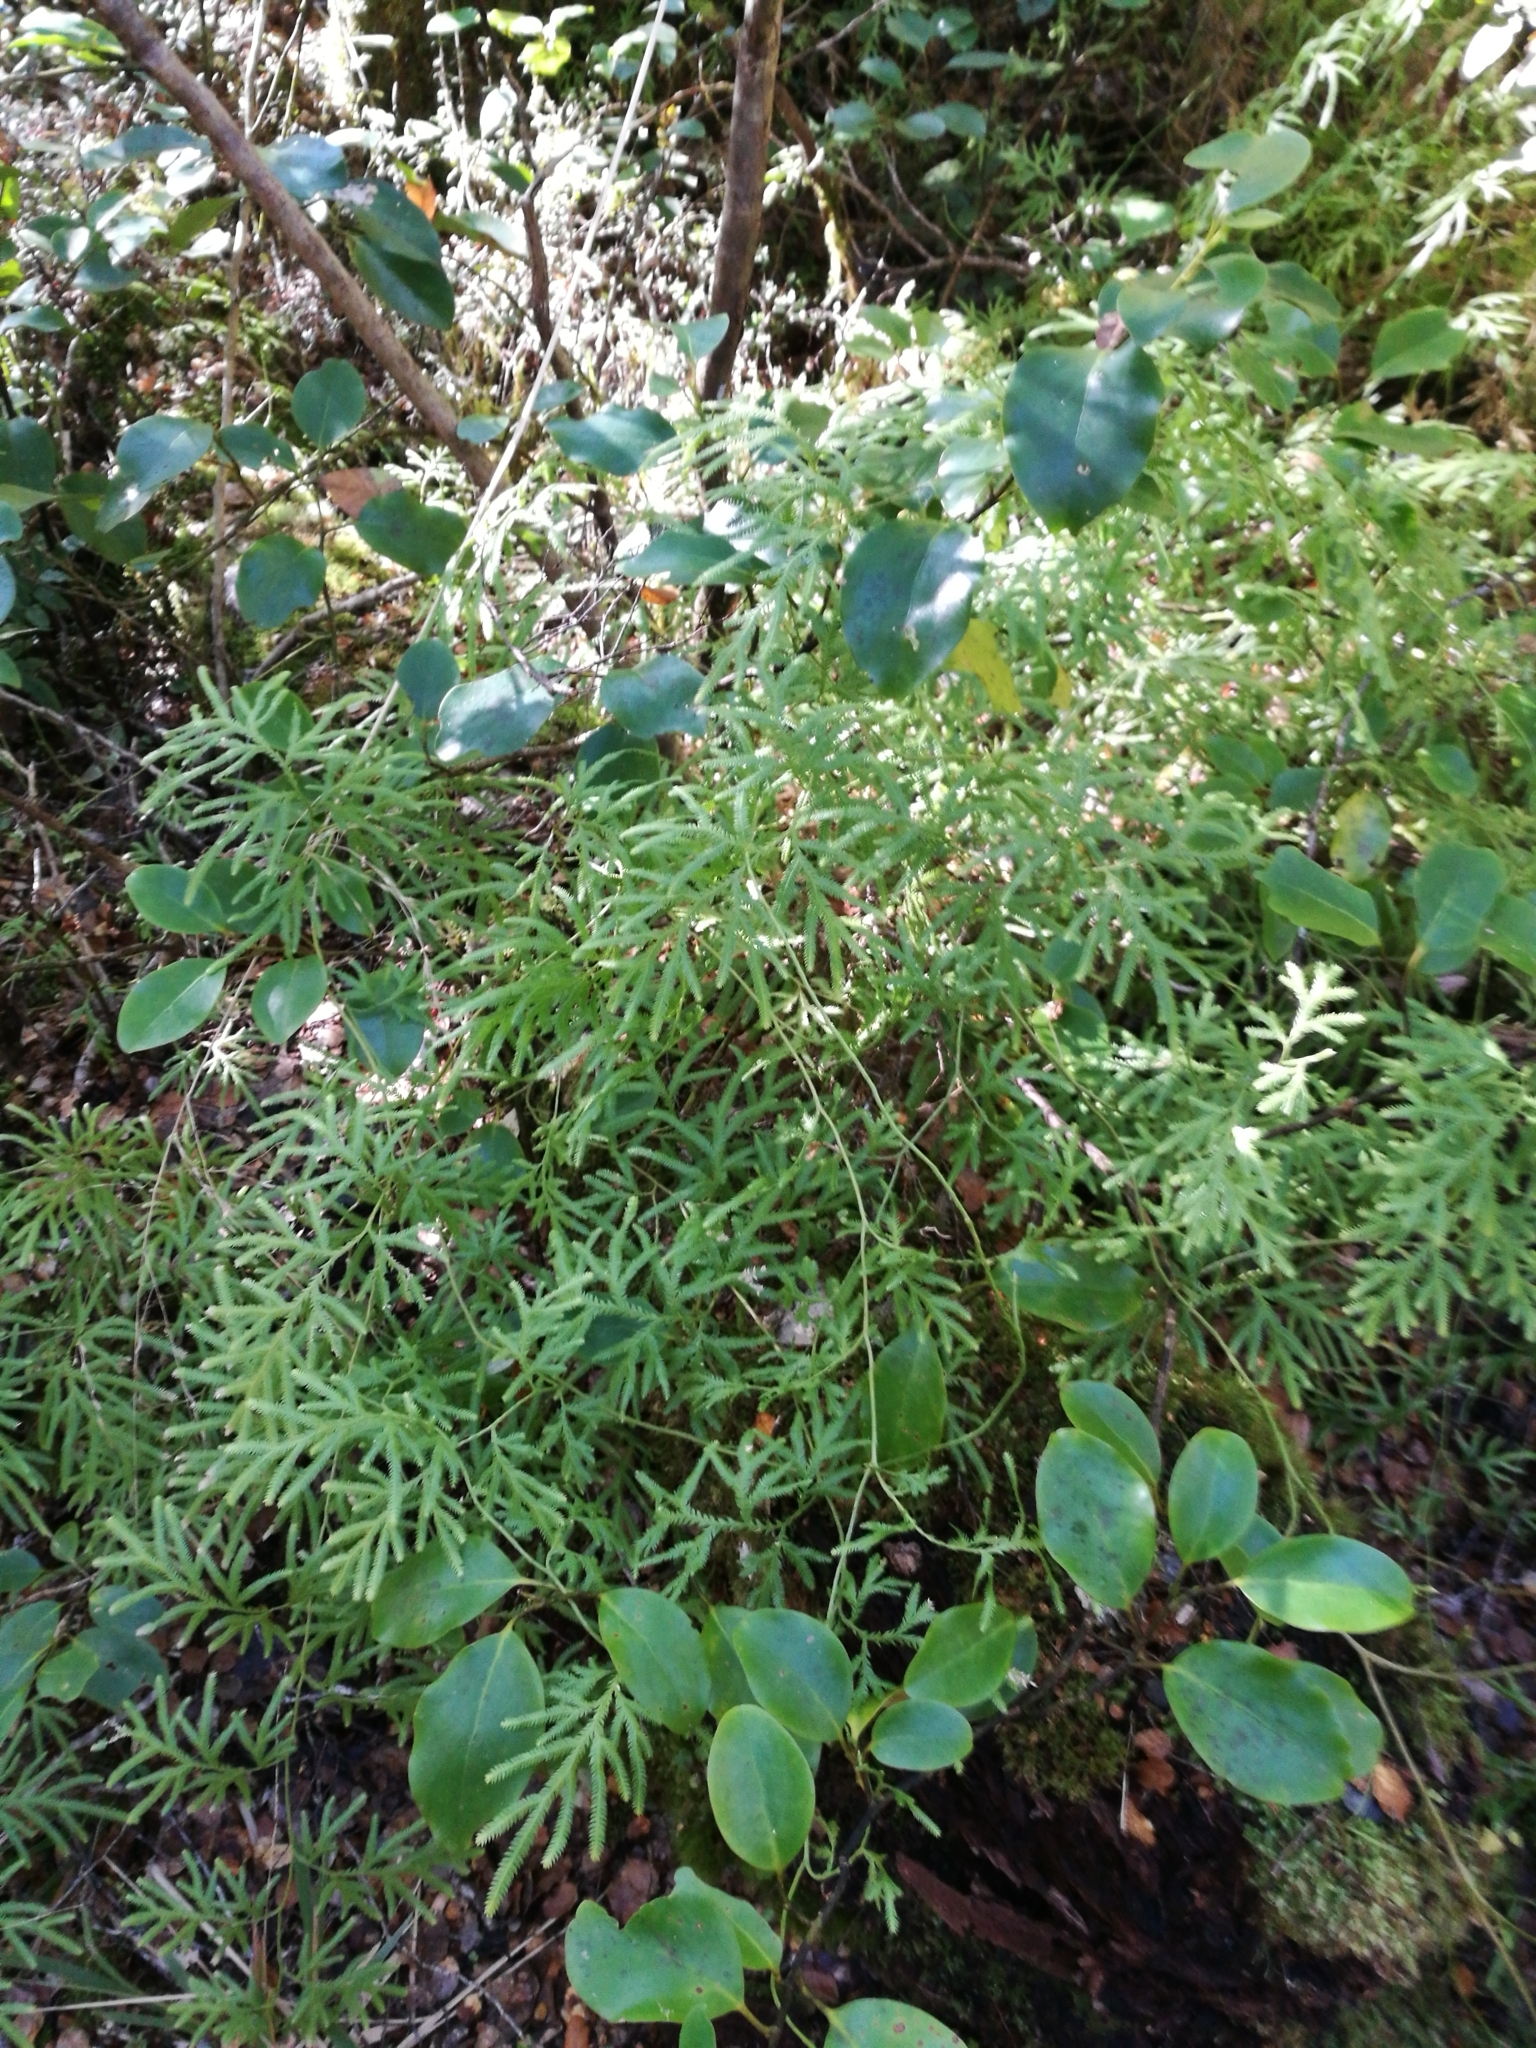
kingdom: Plantae
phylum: Tracheophyta
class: Lycopodiopsida
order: Lycopodiales
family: Lycopodiaceae
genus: Lycopodium
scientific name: Lycopodium volubile
